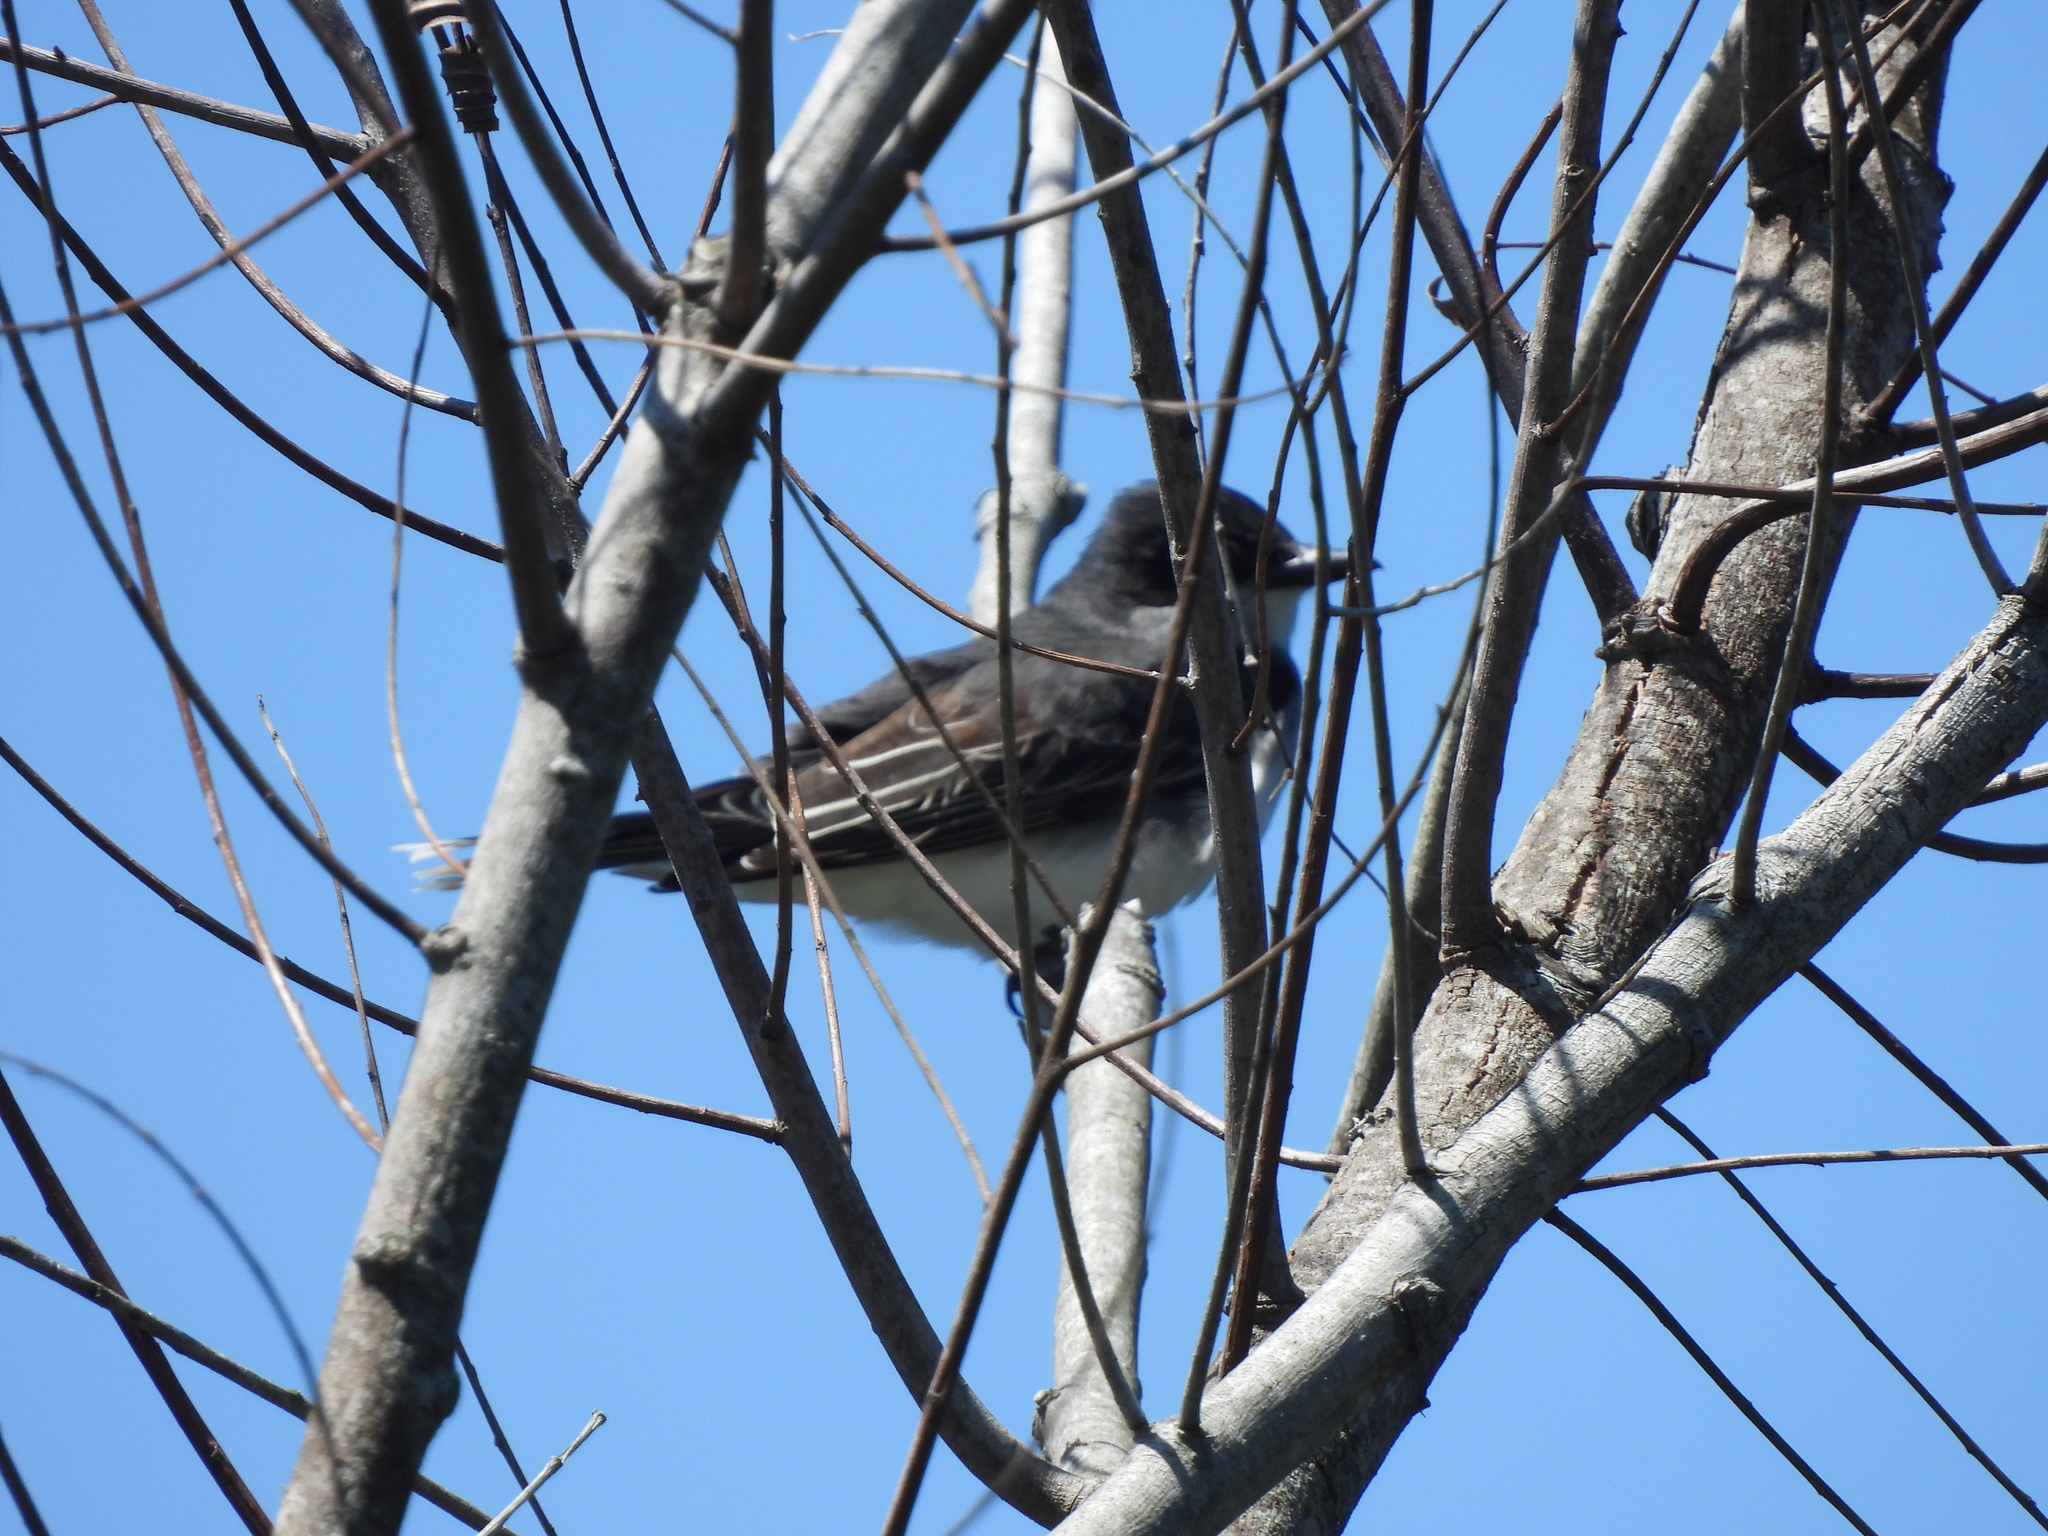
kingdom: Animalia
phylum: Chordata
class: Aves
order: Passeriformes
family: Tyrannidae
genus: Tyrannus
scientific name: Tyrannus tyrannus
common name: Eastern kingbird
